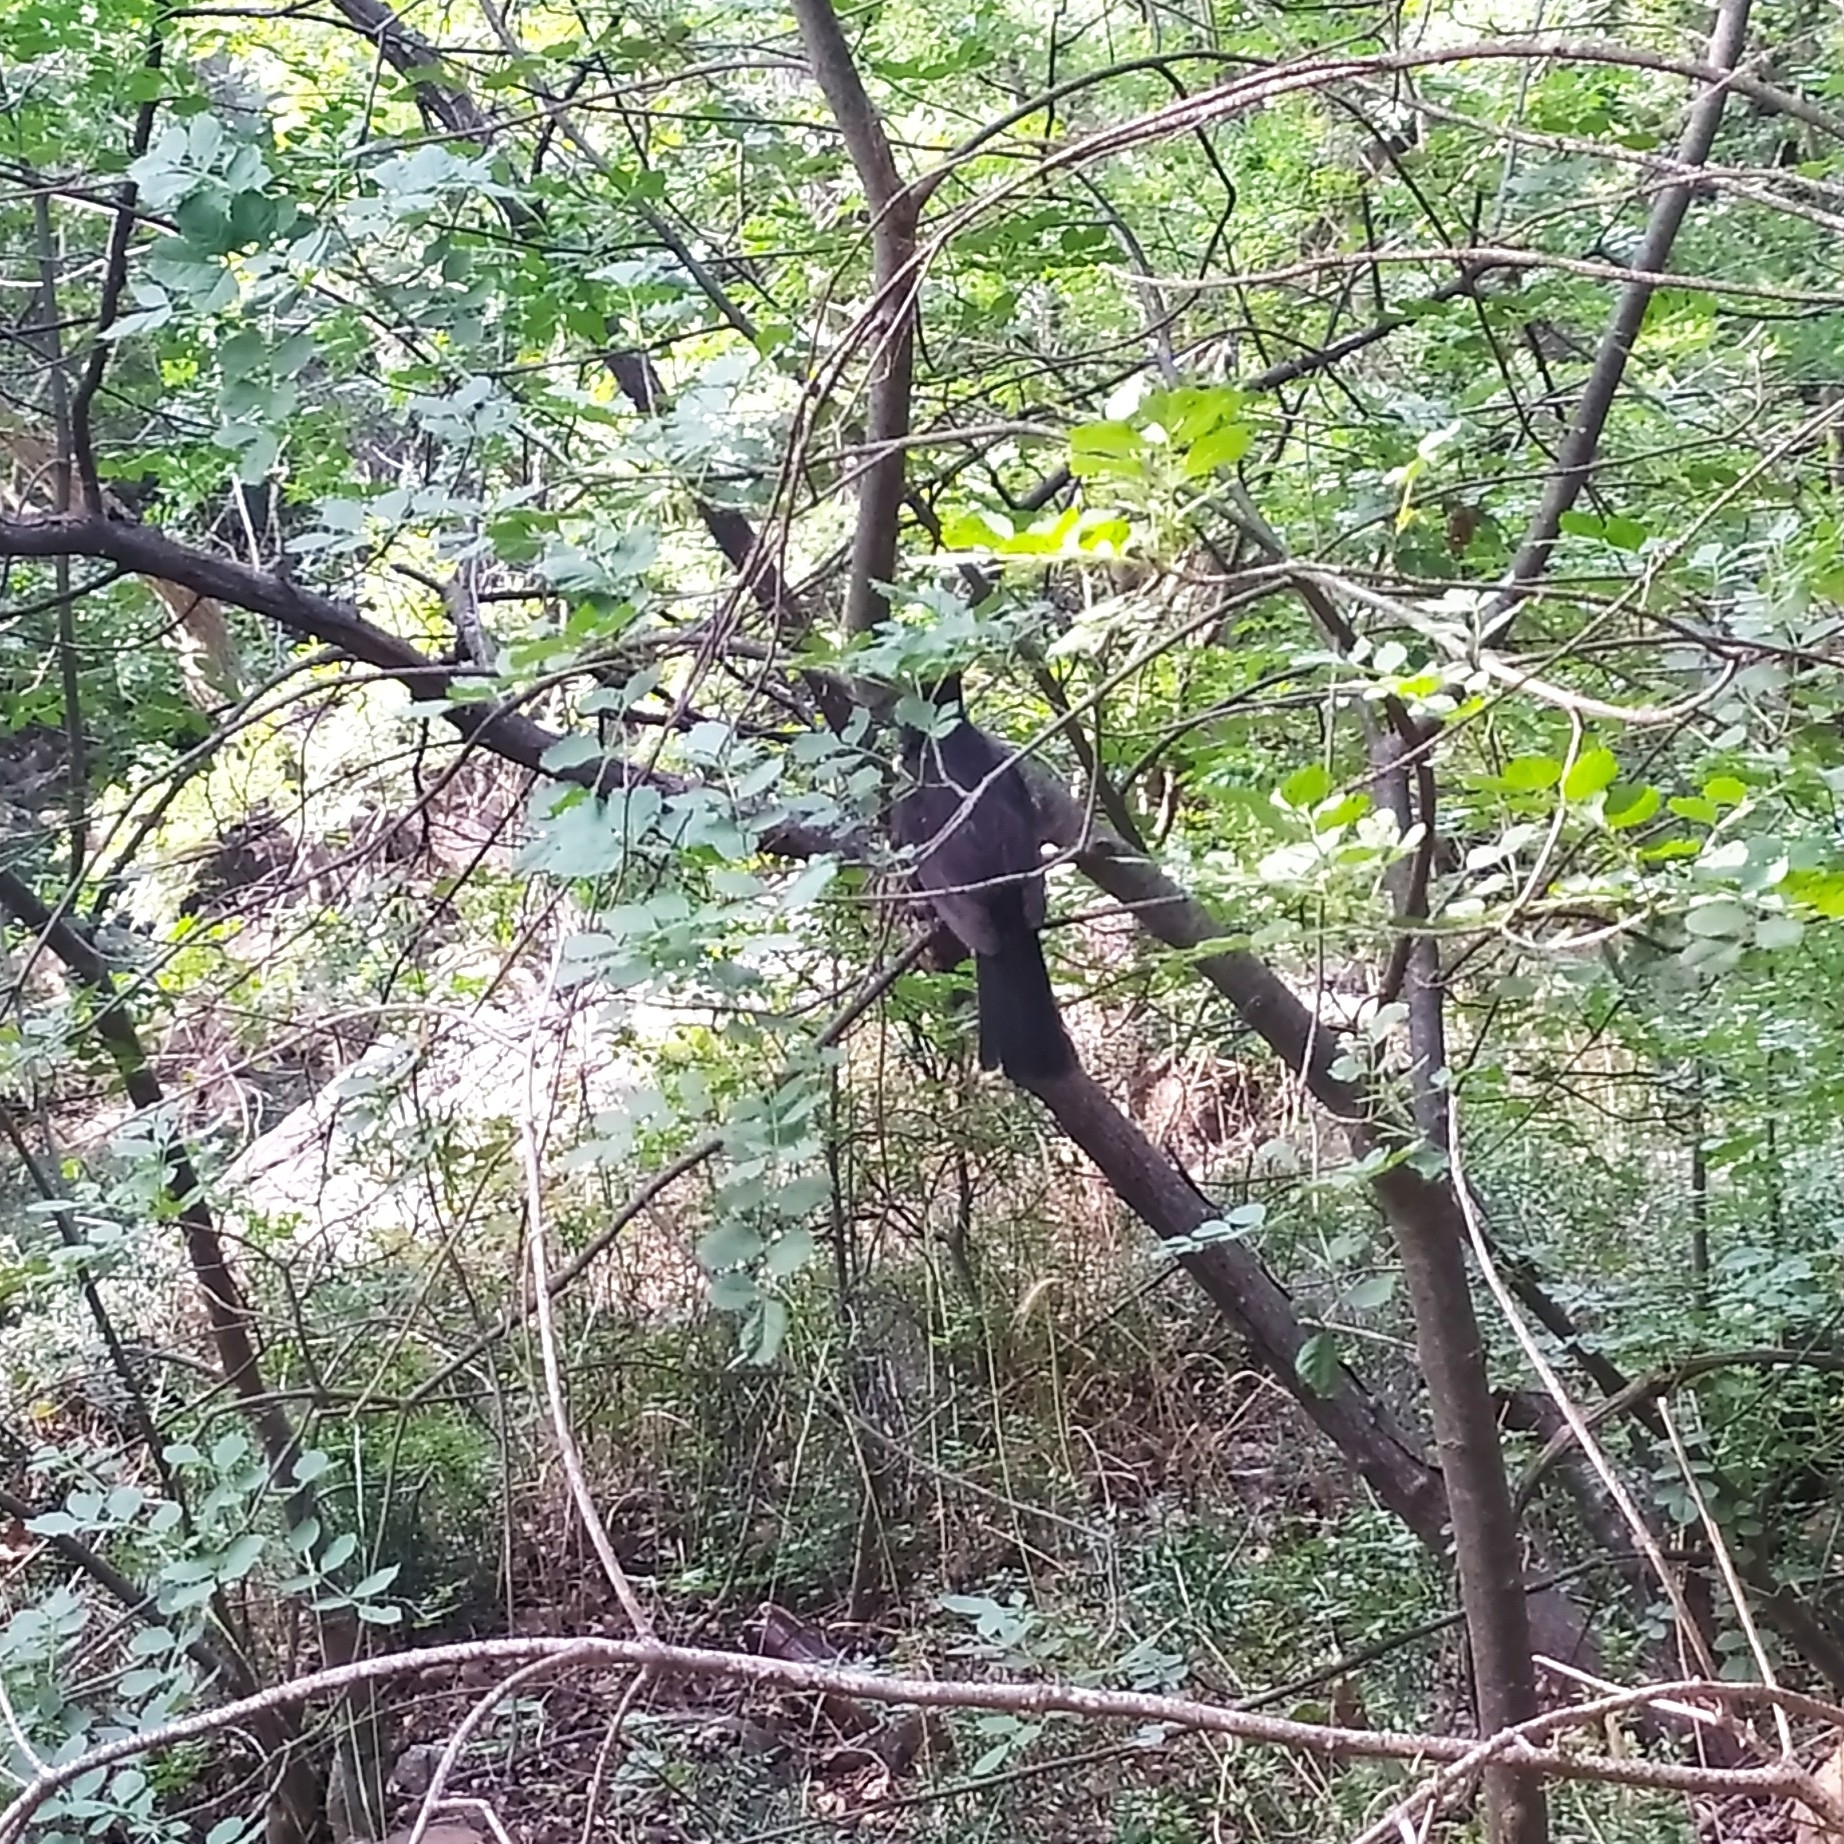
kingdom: Animalia
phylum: Chordata
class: Aves
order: Passeriformes
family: Turdidae
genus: Turdus
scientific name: Turdus merula
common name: Common blackbird
